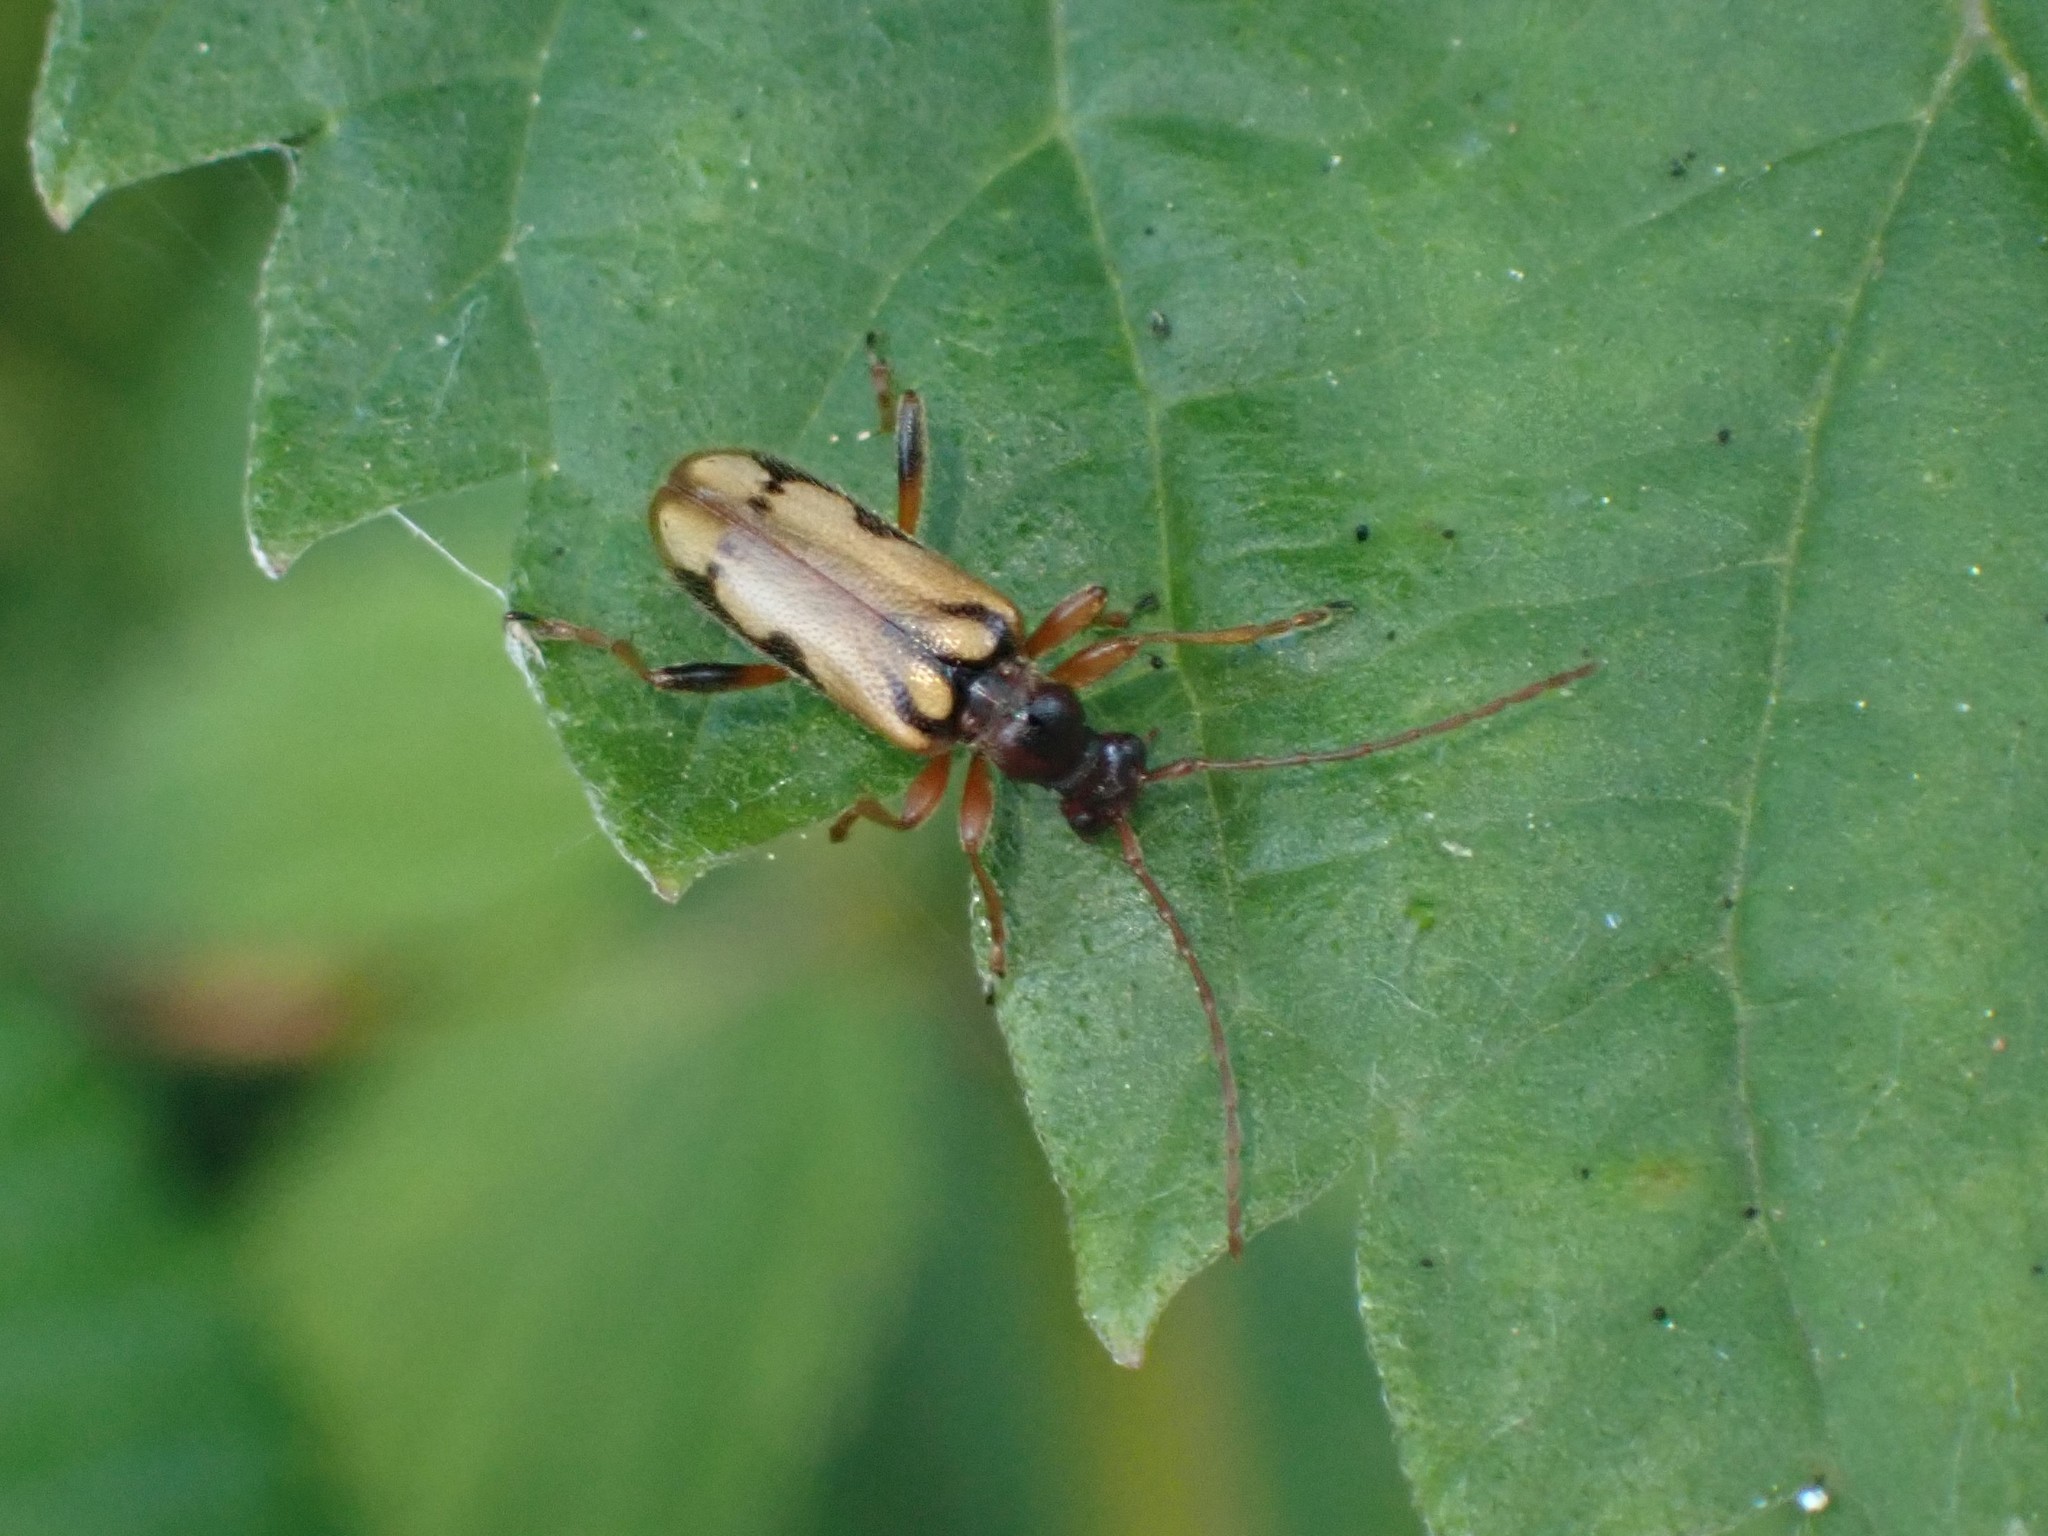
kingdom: Animalia
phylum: Arthropoda
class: Insecta
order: Coleoptera
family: Cerambycidae
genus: Pidonia
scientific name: Pidonia scripta
